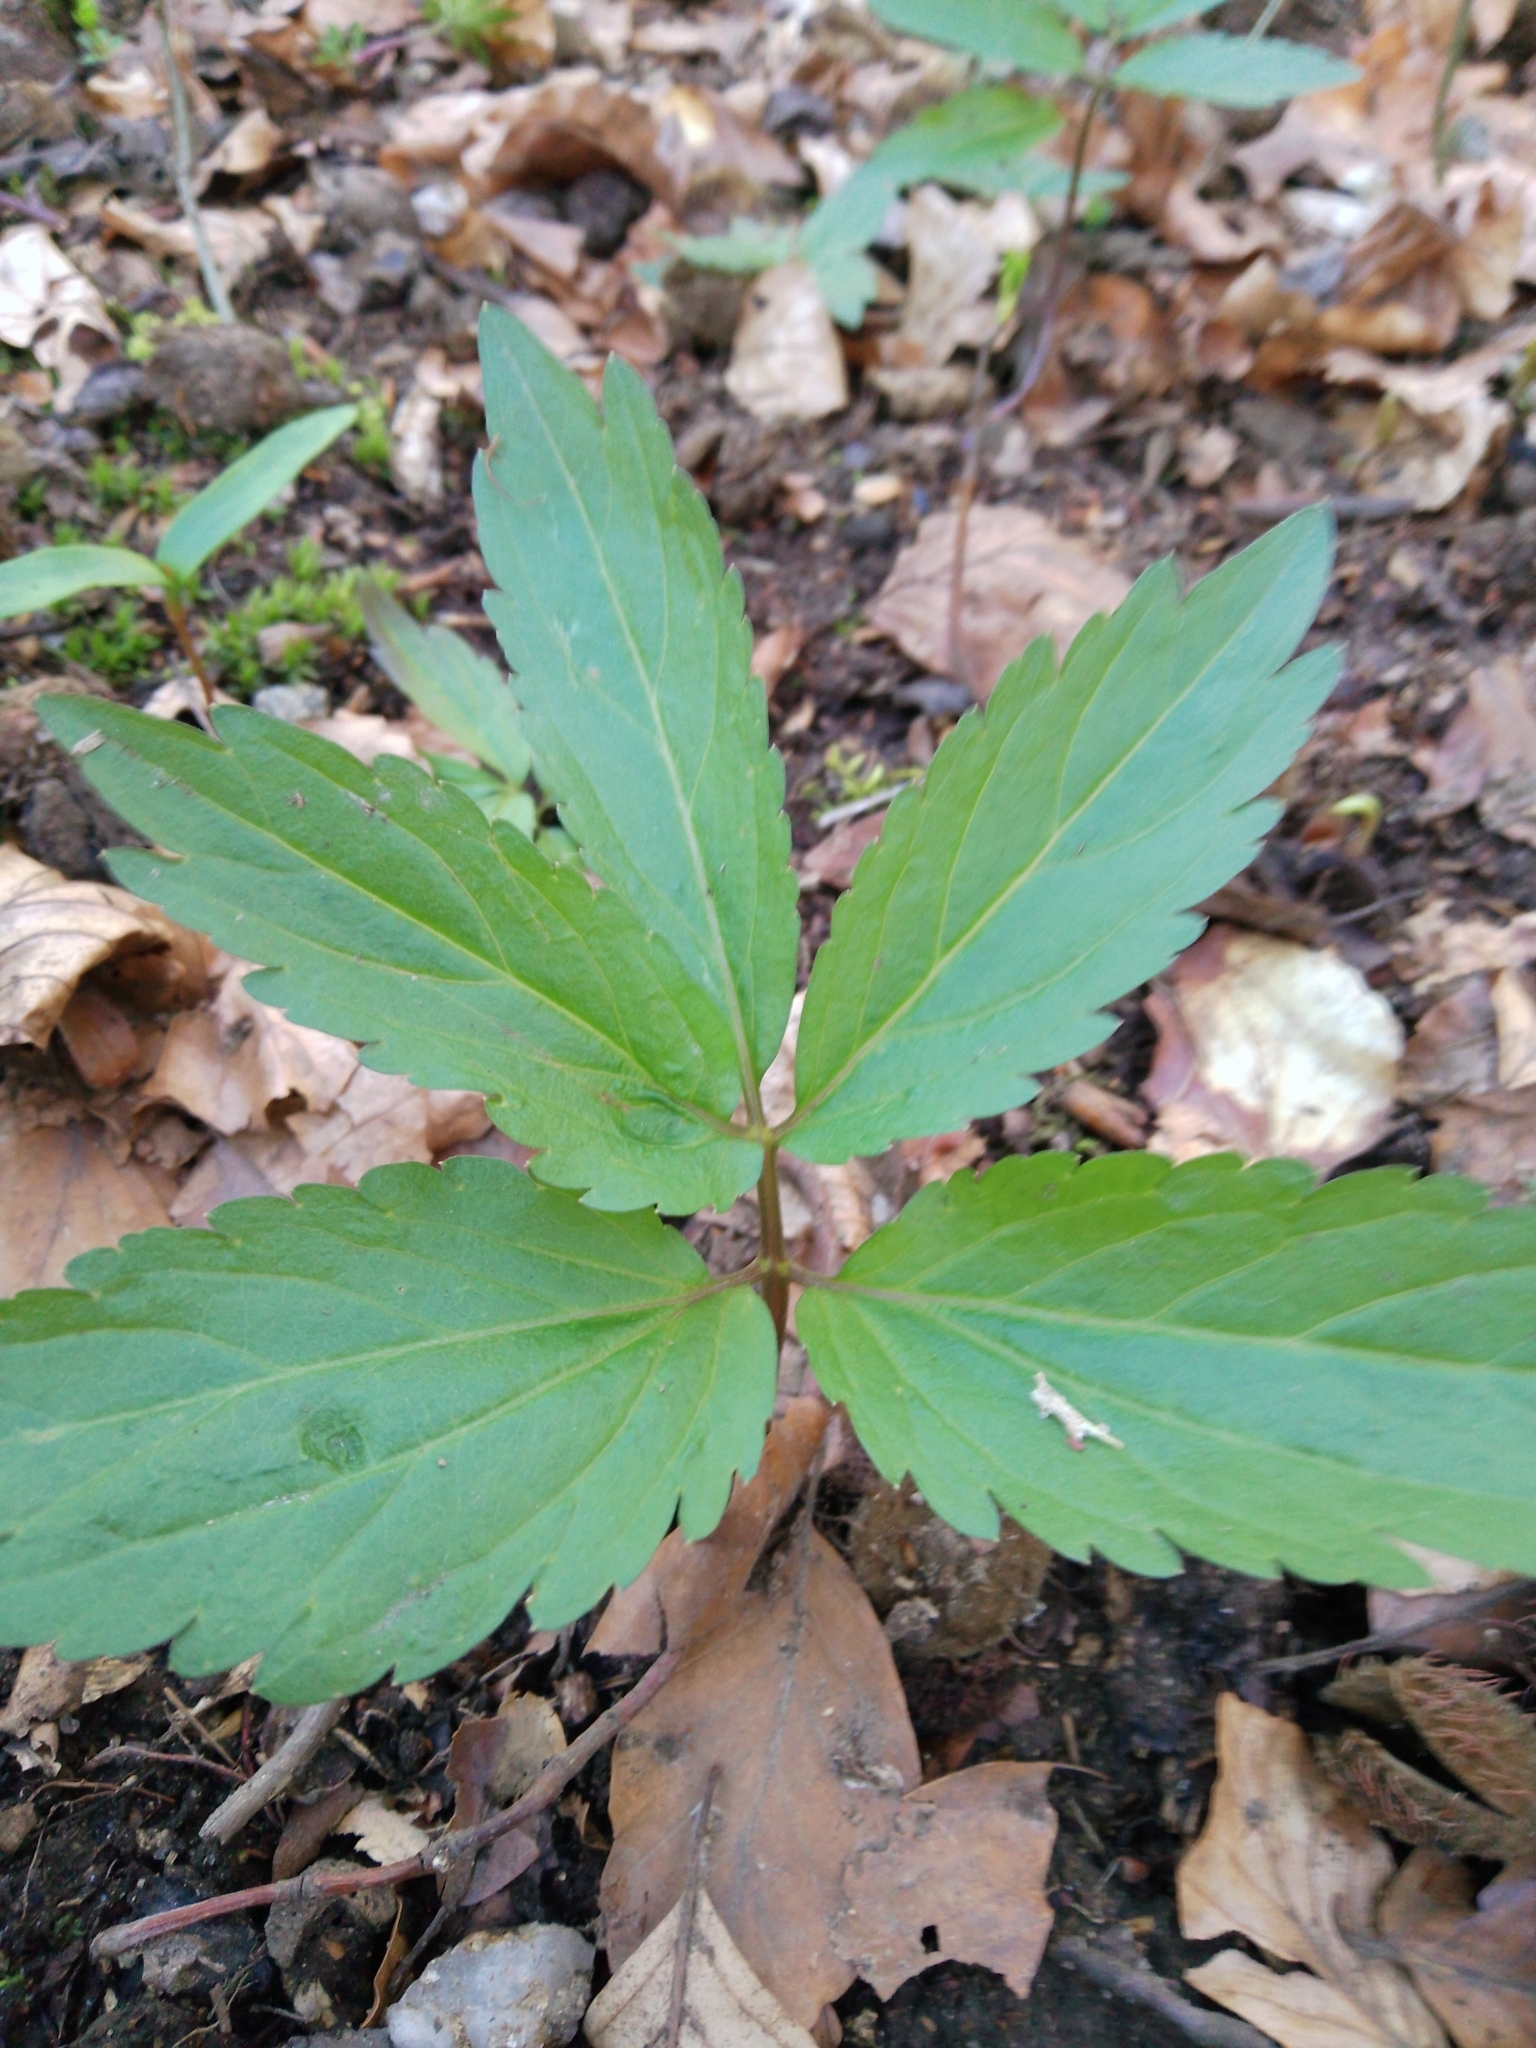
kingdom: Plantae
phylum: Tracheophyta
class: Magnoliopsida
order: Brassicales
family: Brassicaceae
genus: Cardamine
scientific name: Cardamine bulbifera
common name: Coralroot bittercress
